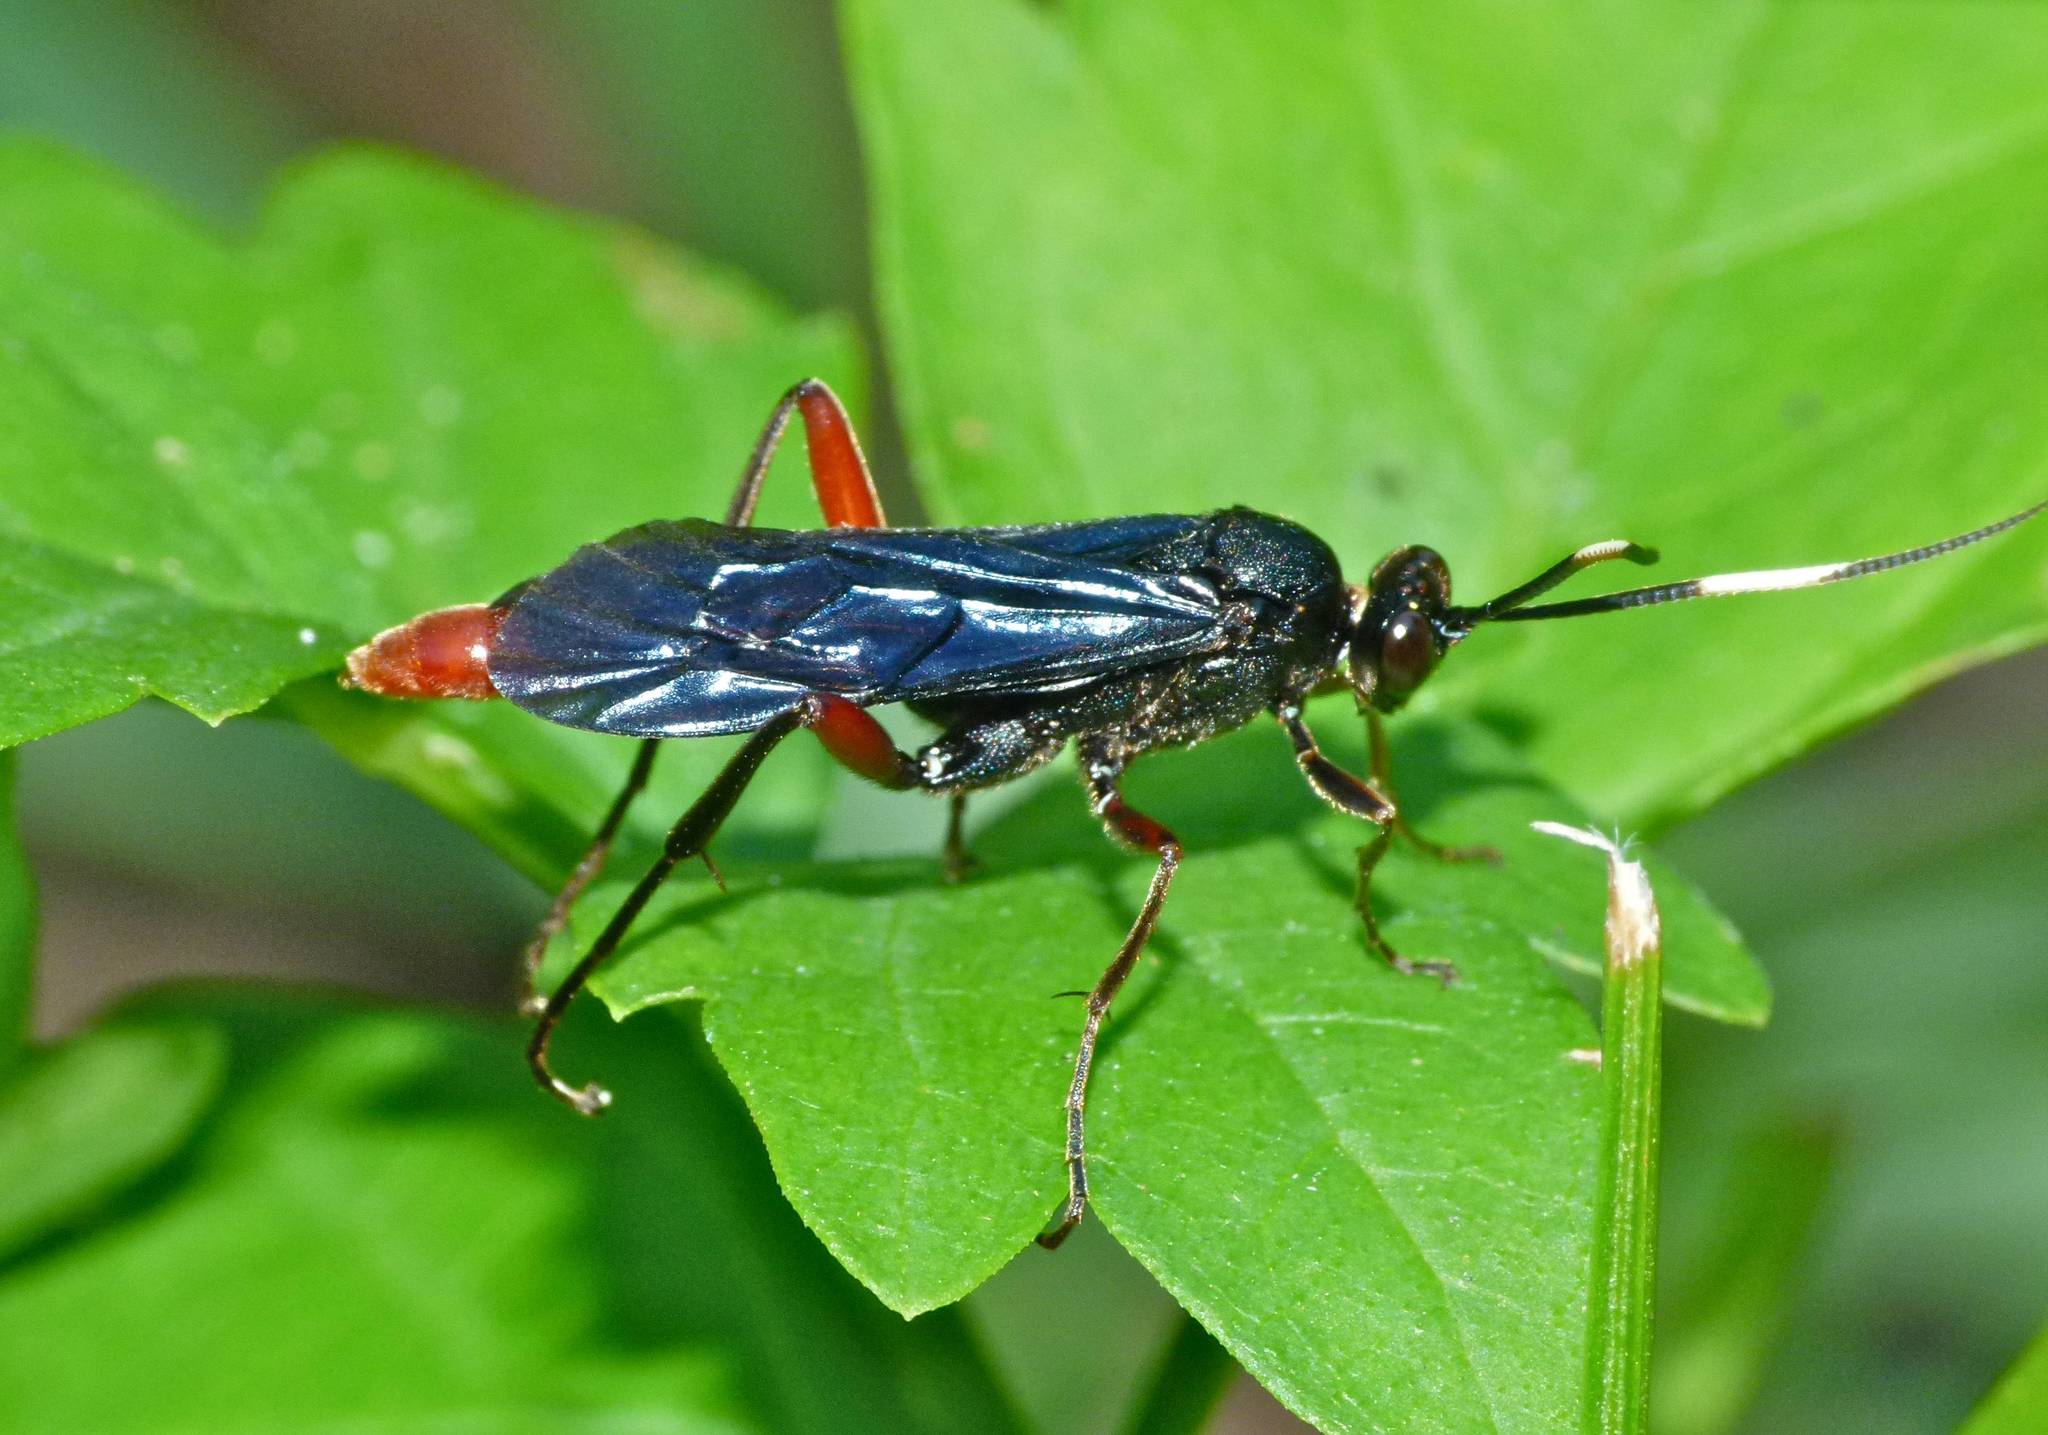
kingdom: Animalia
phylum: Arthropoda
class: Insecta
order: Hymenoptera
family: Ichneumonidae
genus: Limonethe
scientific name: Limonethe maurator
